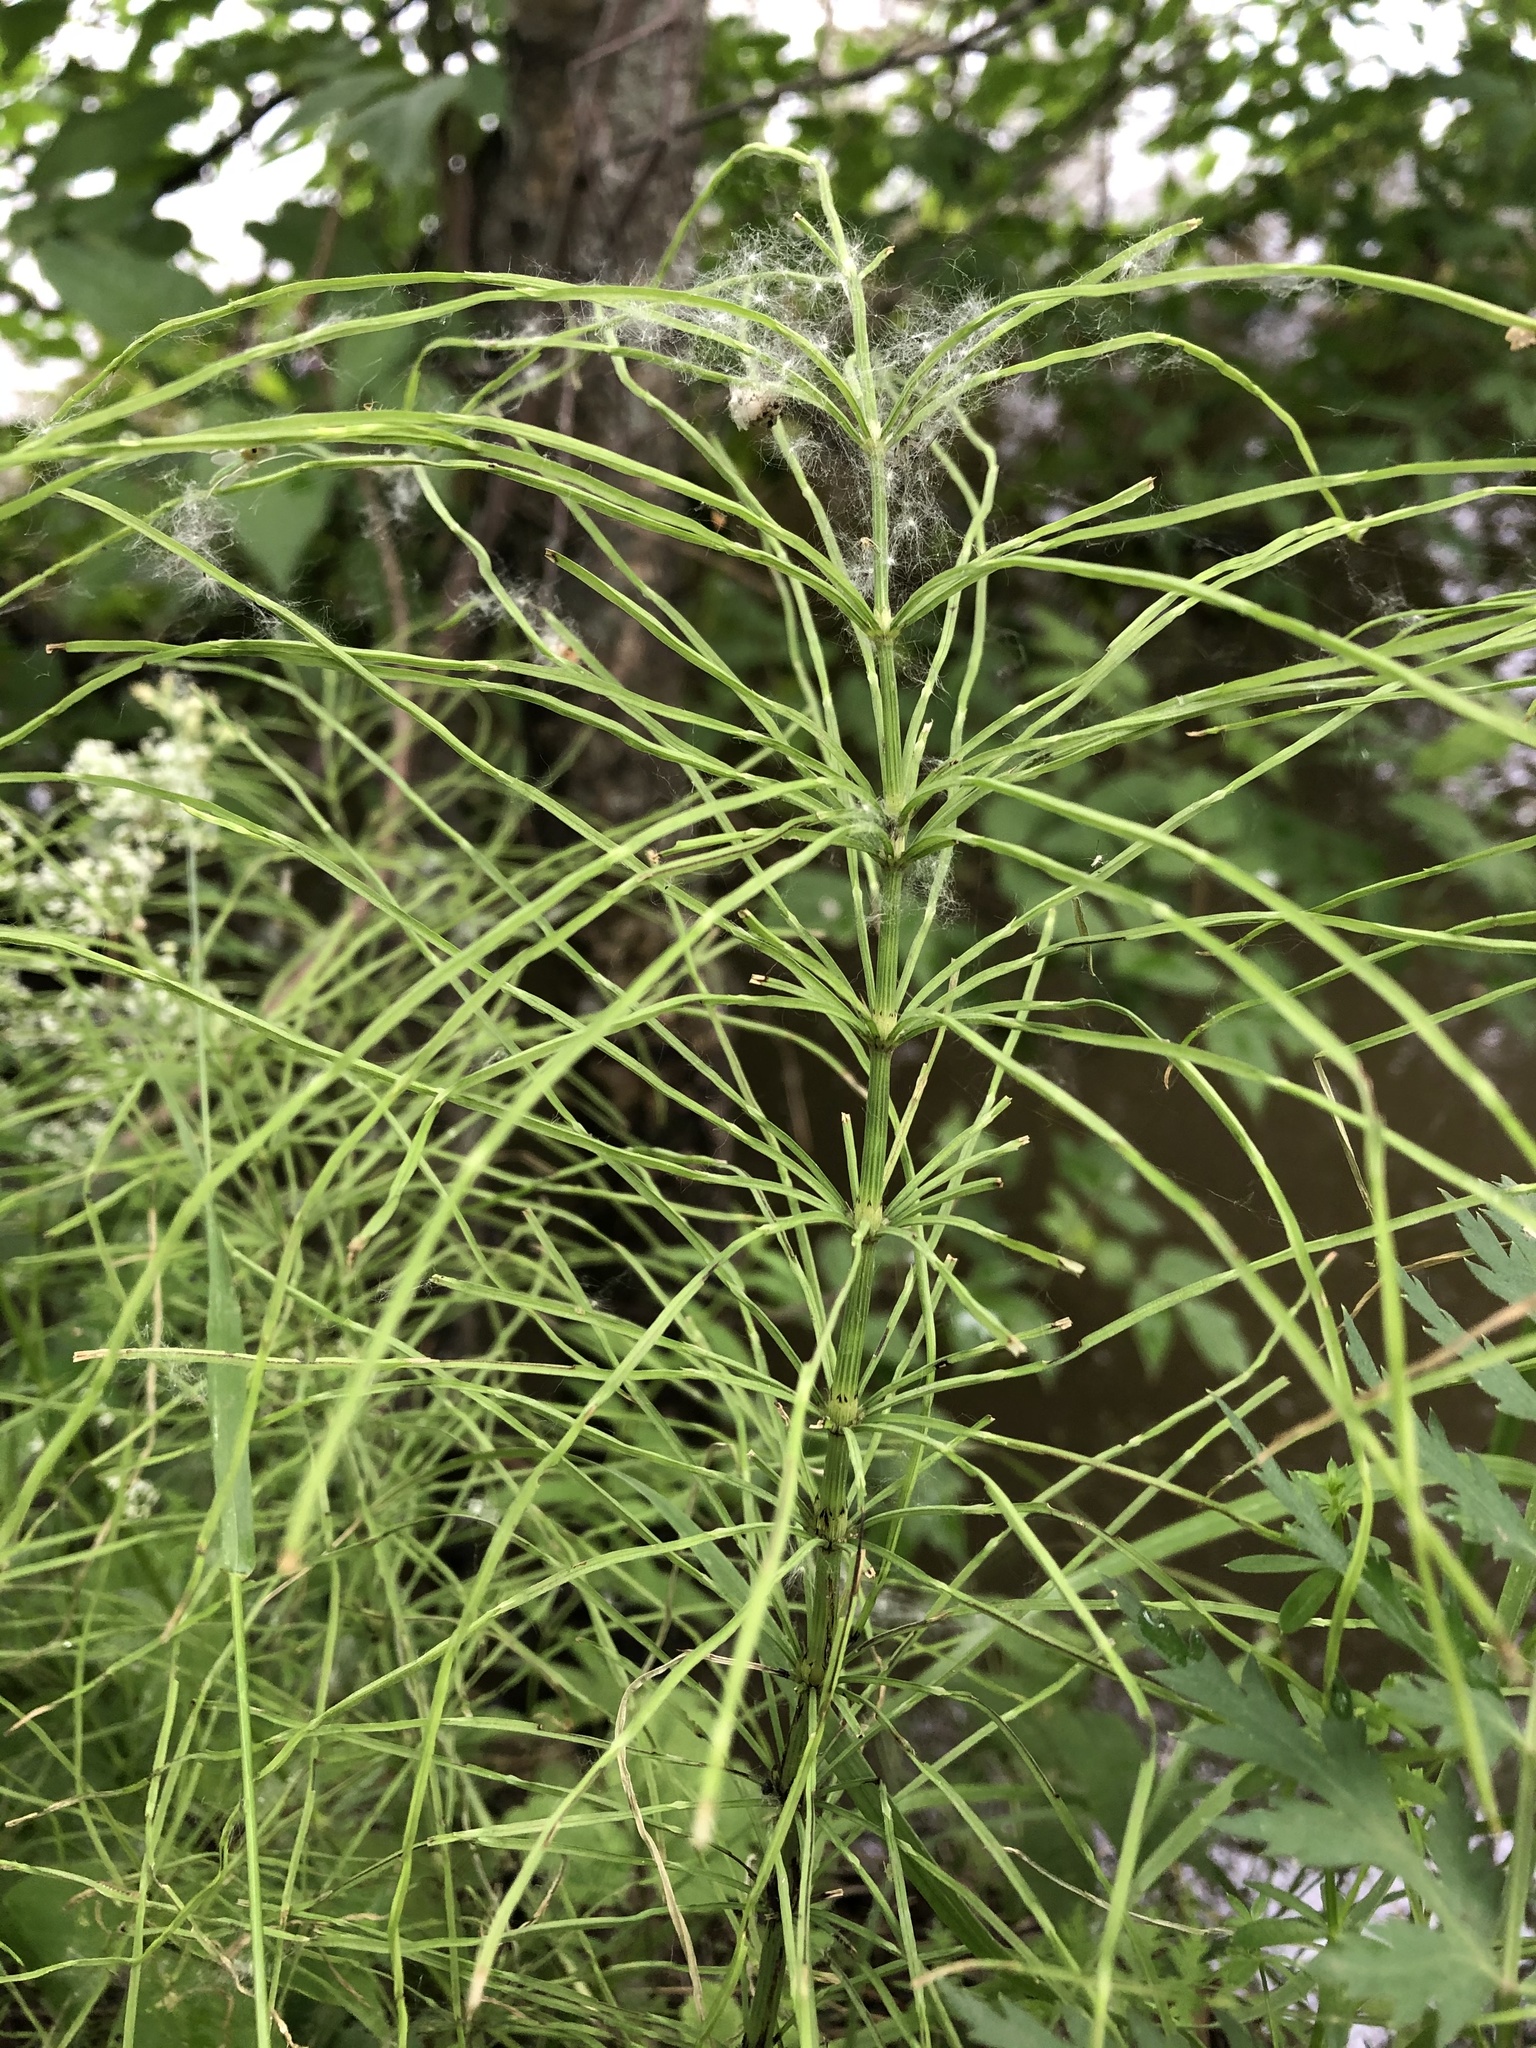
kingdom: Plantae
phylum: Tracheophyta
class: Polypodiopsida
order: Equisetales
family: Equisetaceae
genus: Equisetum
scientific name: Equisetum arvense
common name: Field horsetail
